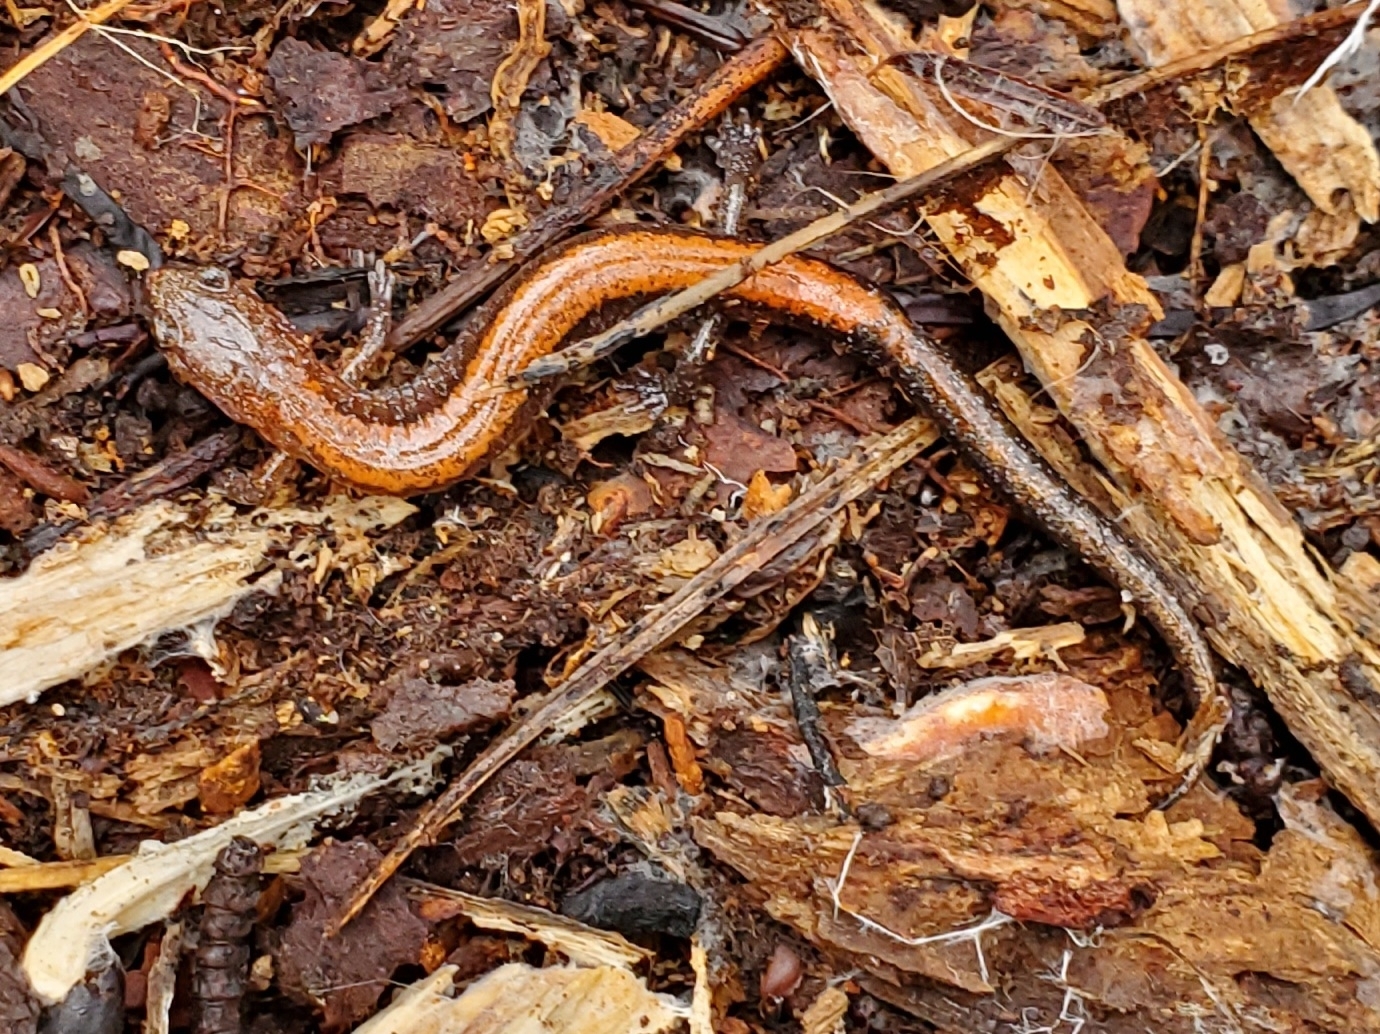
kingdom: Animalia
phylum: Chordata
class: Amphibia
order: Caudata
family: Plethodontidae
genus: Plethodon
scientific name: Plethodon serratus
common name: Southern red-backed salamander
